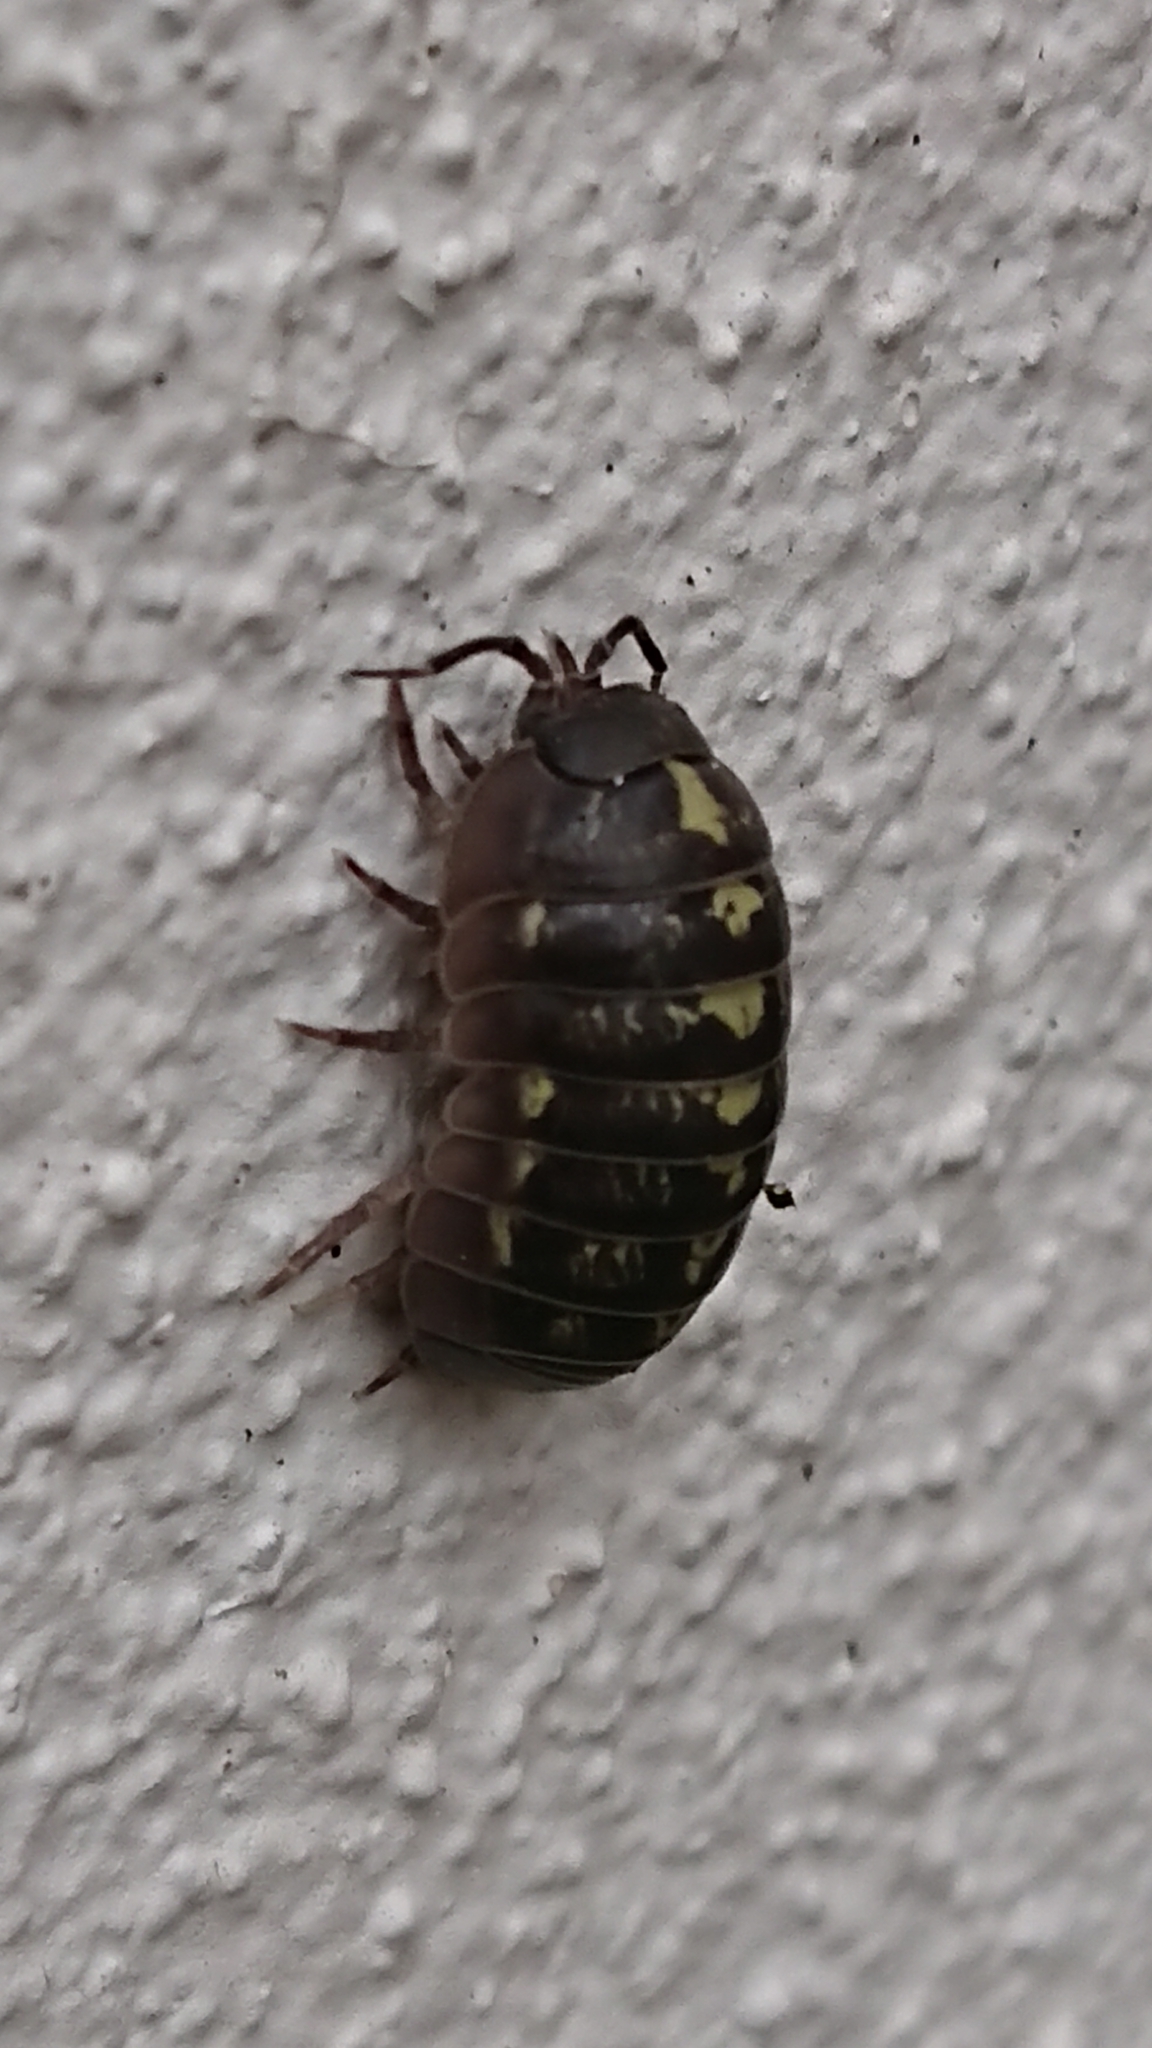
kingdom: Animalia
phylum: Arthropoda
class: Malacostraca
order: Isopoda
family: Armadillidiidae
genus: Armadillidium
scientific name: Armadillidium vulgare
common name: Common pill woodlouse
